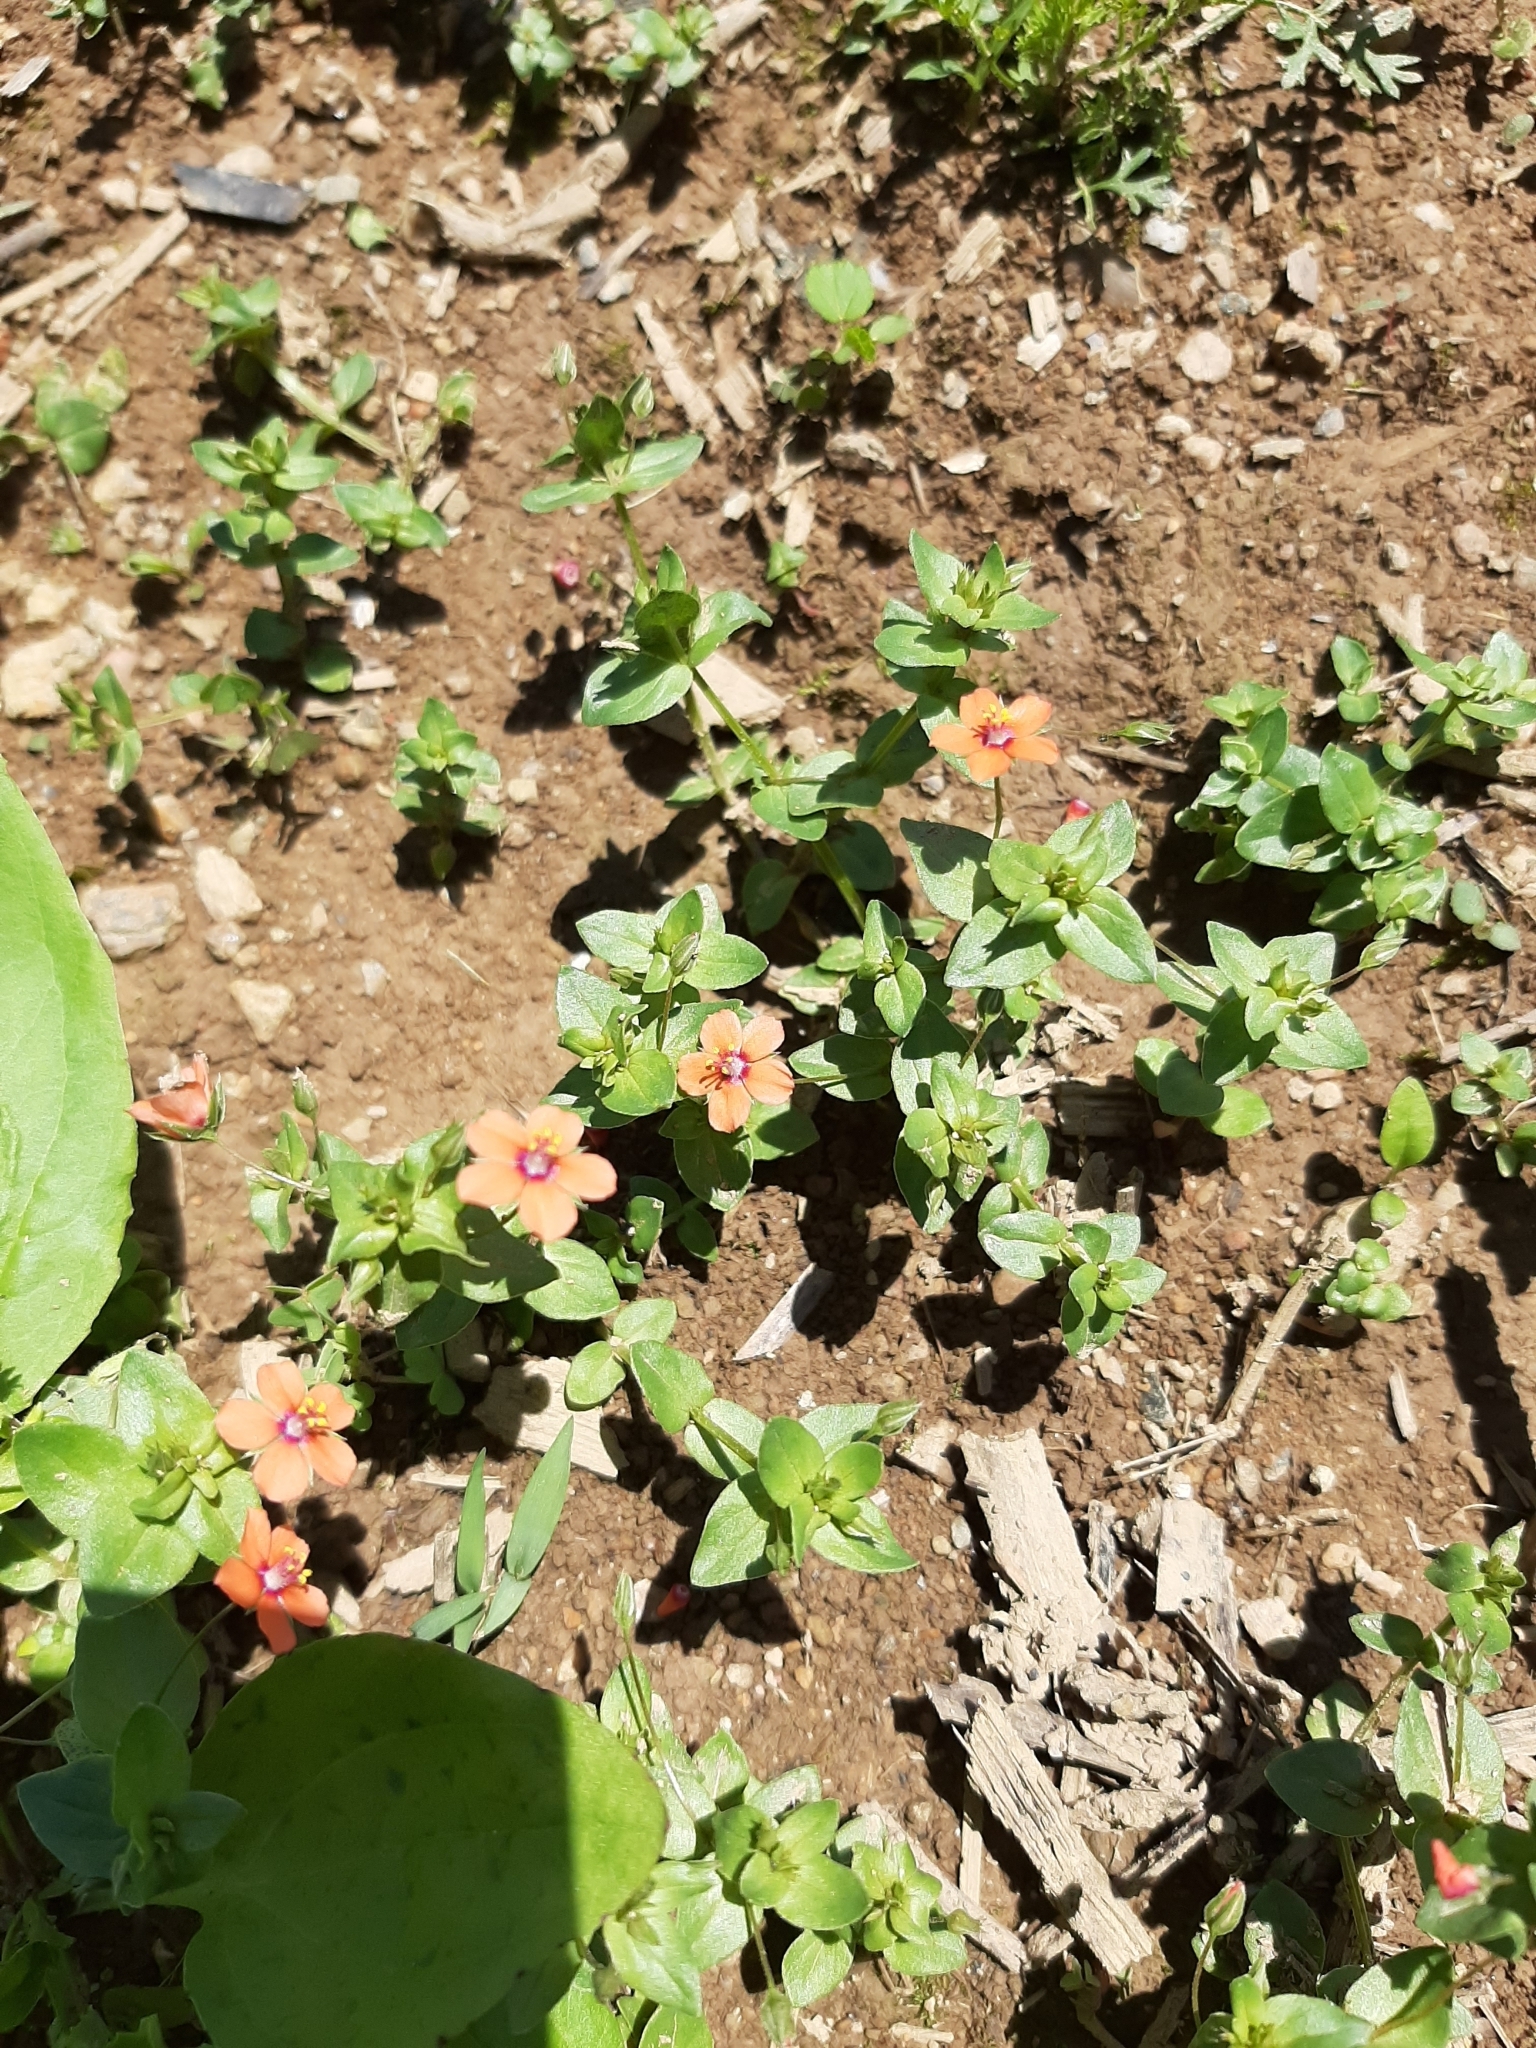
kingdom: Plantae
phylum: Tracheophyta
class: Magnoliopsida
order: Ericales
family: Primulaceae
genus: Lysimachia
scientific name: Lysimachia arvensis
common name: Scarlet pimpernel
